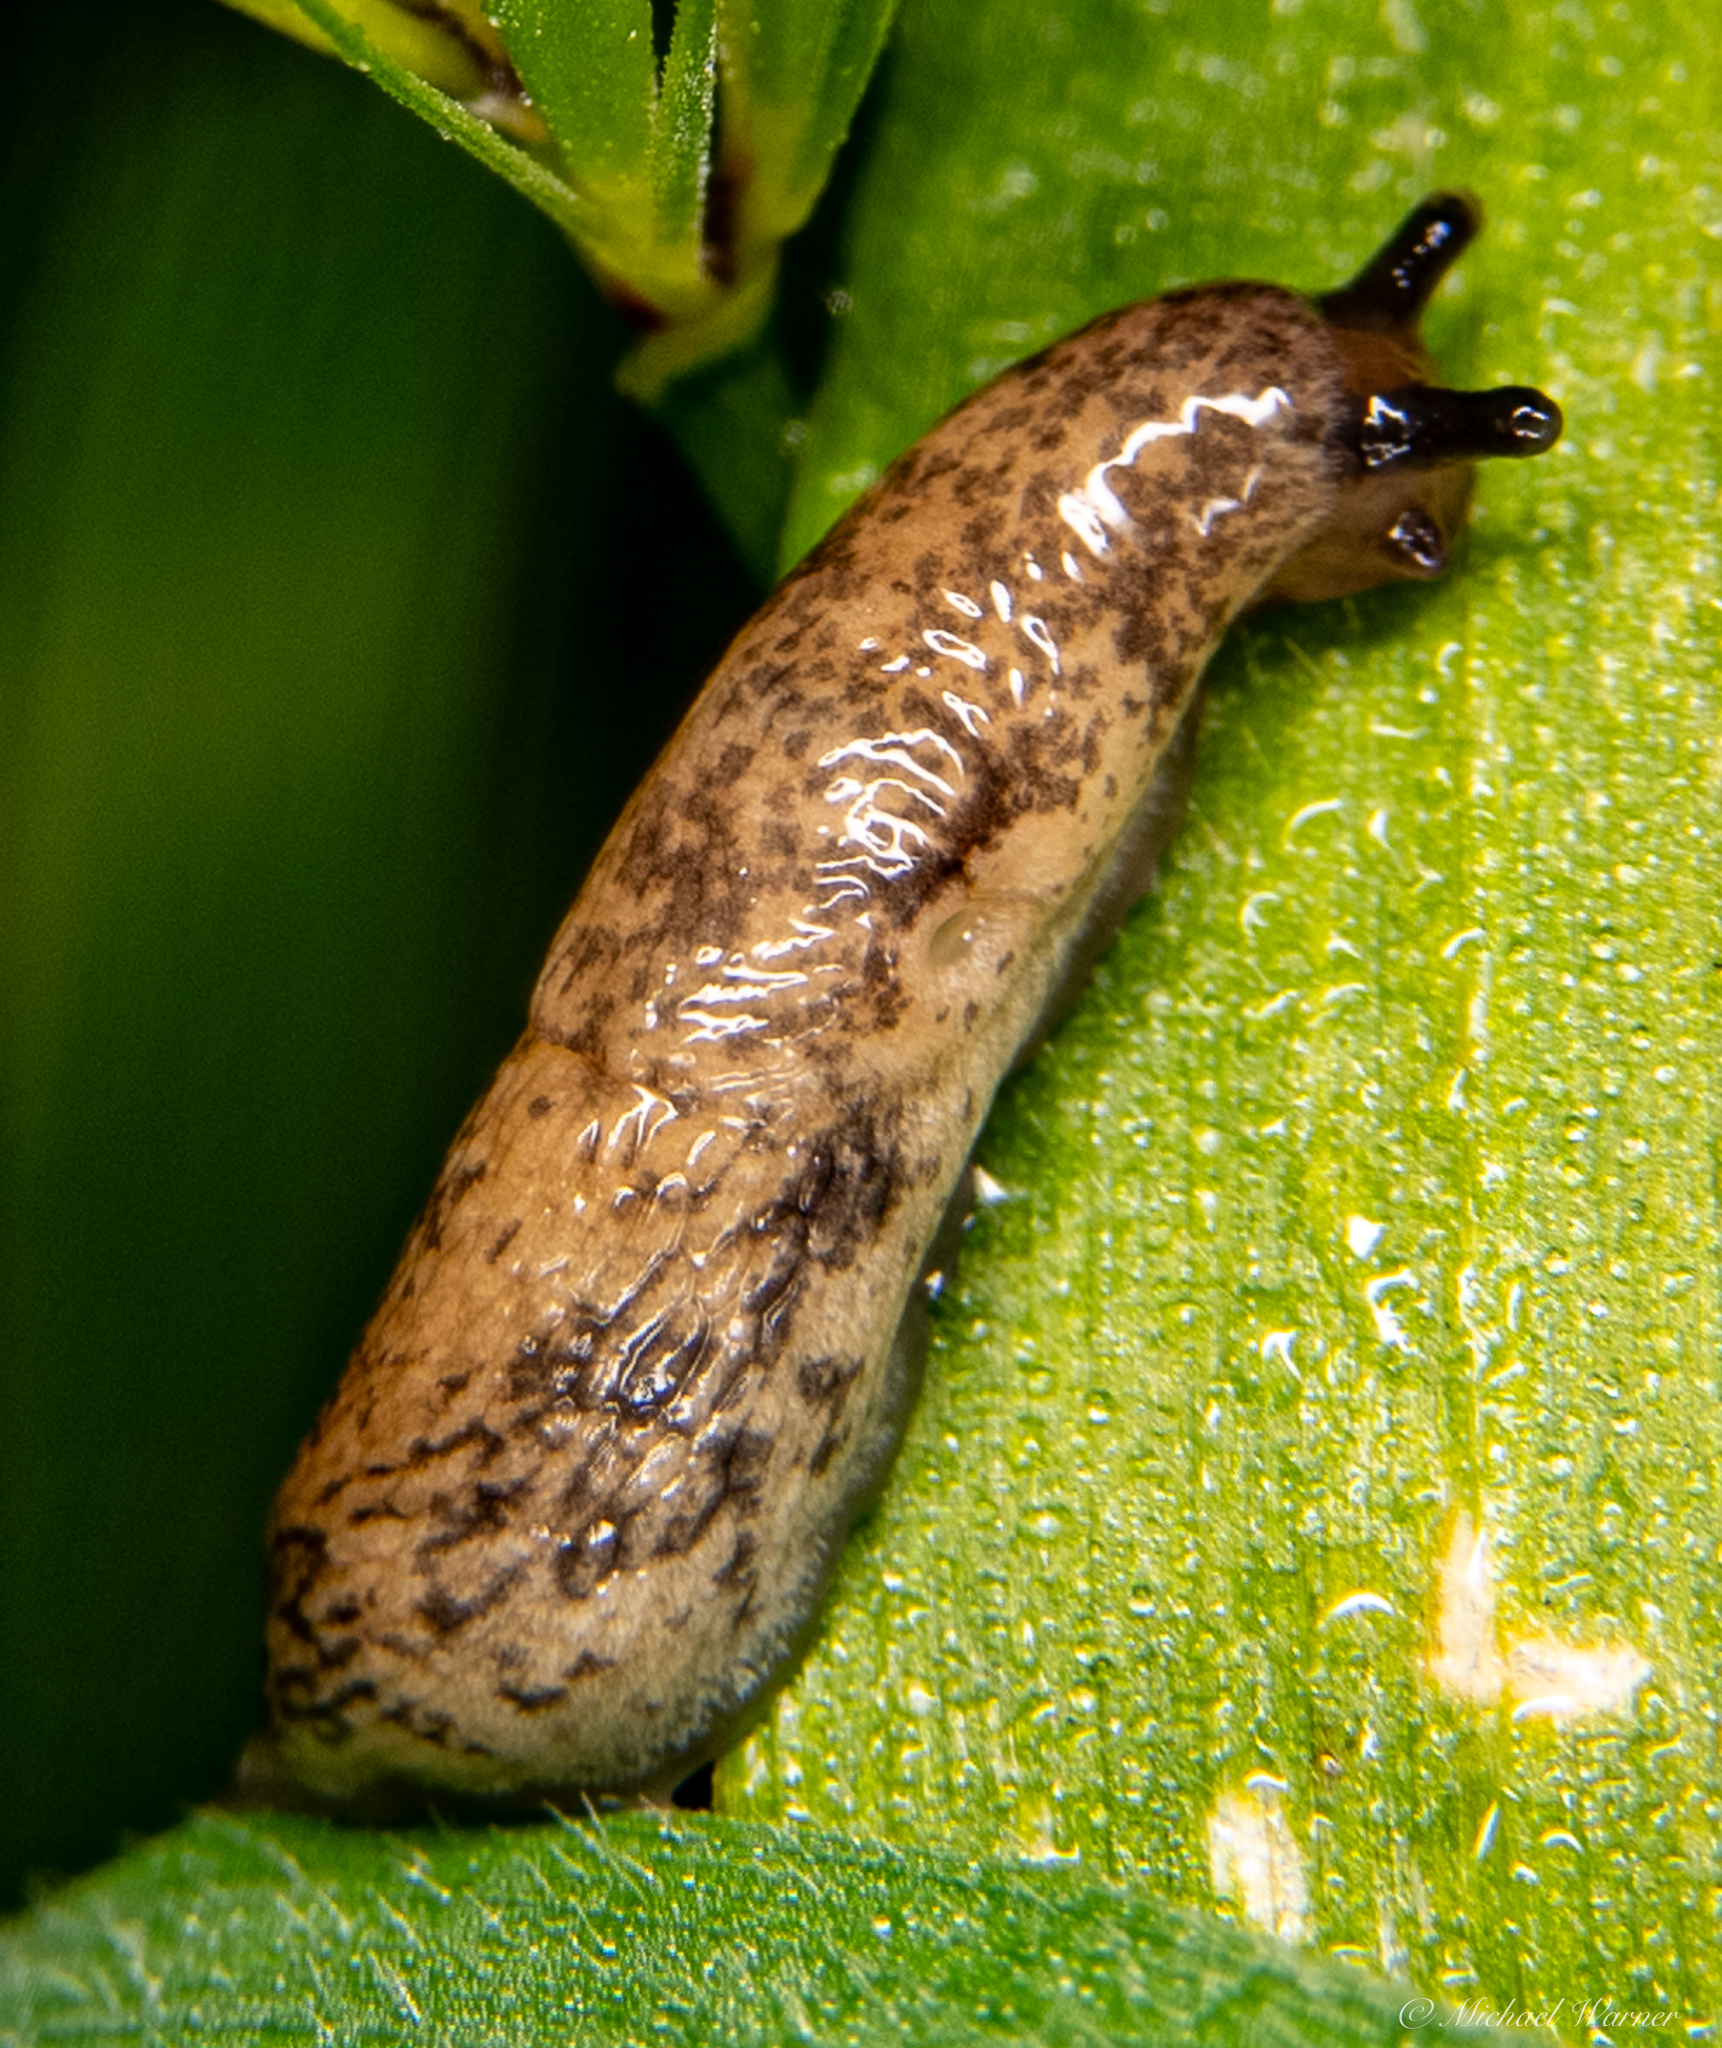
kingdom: Animalia
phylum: Mollusca
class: Gastropoda
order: Stylommatophora
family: Agriolimacidae
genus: Deroceras
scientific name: Deroceras reticulatum
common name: Gray field slug
